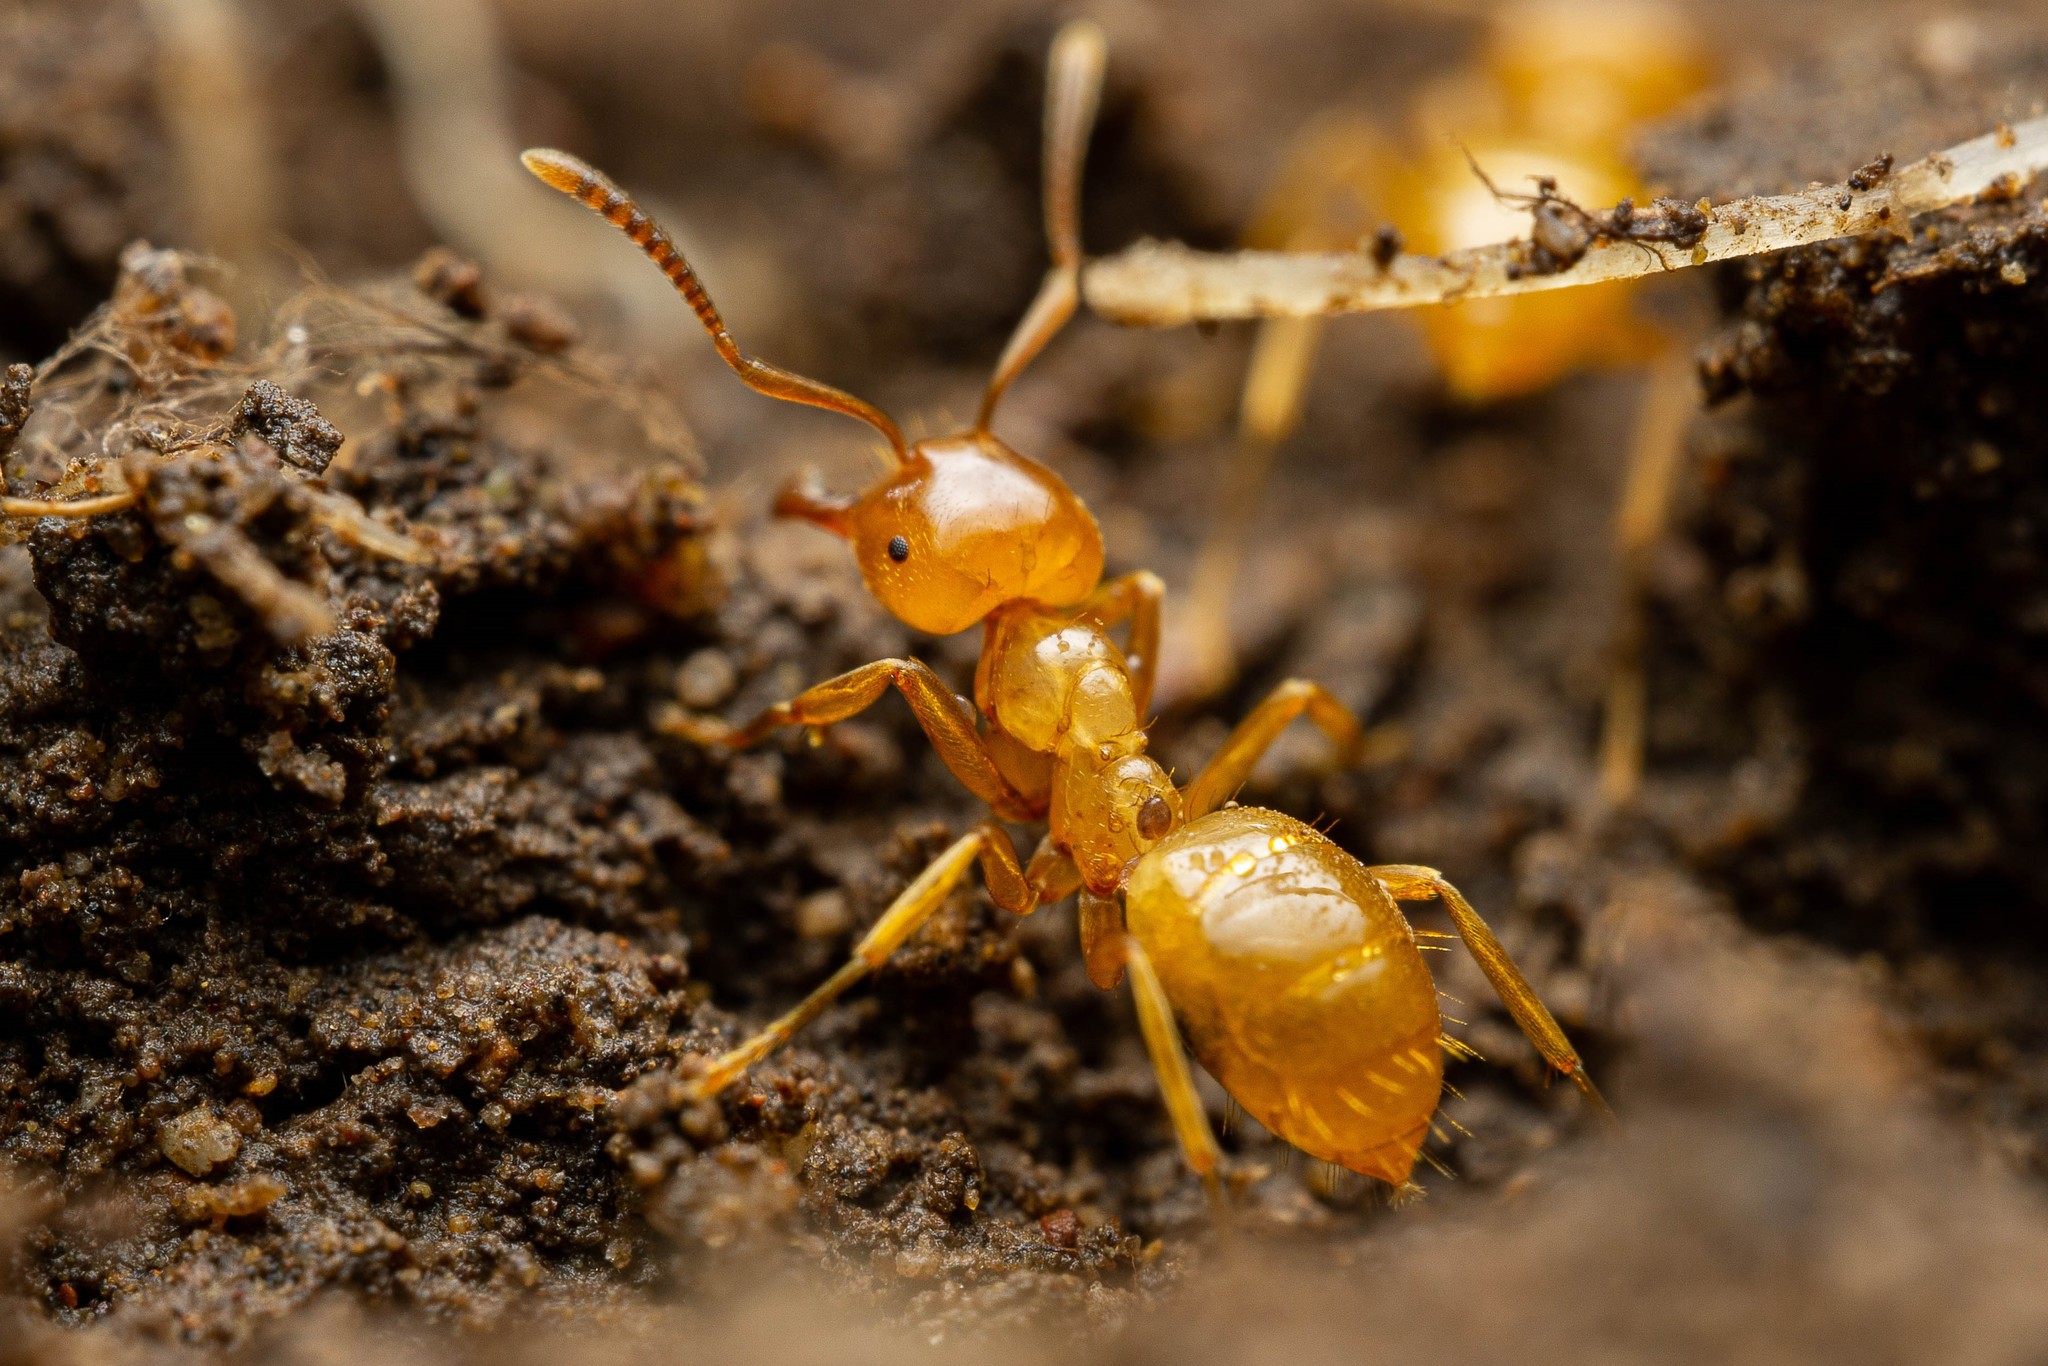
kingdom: Animalia
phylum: Arthropoda
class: Insecta
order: Hymenoptera
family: Formicidae
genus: Lasius
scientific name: Lasius arizonicus
